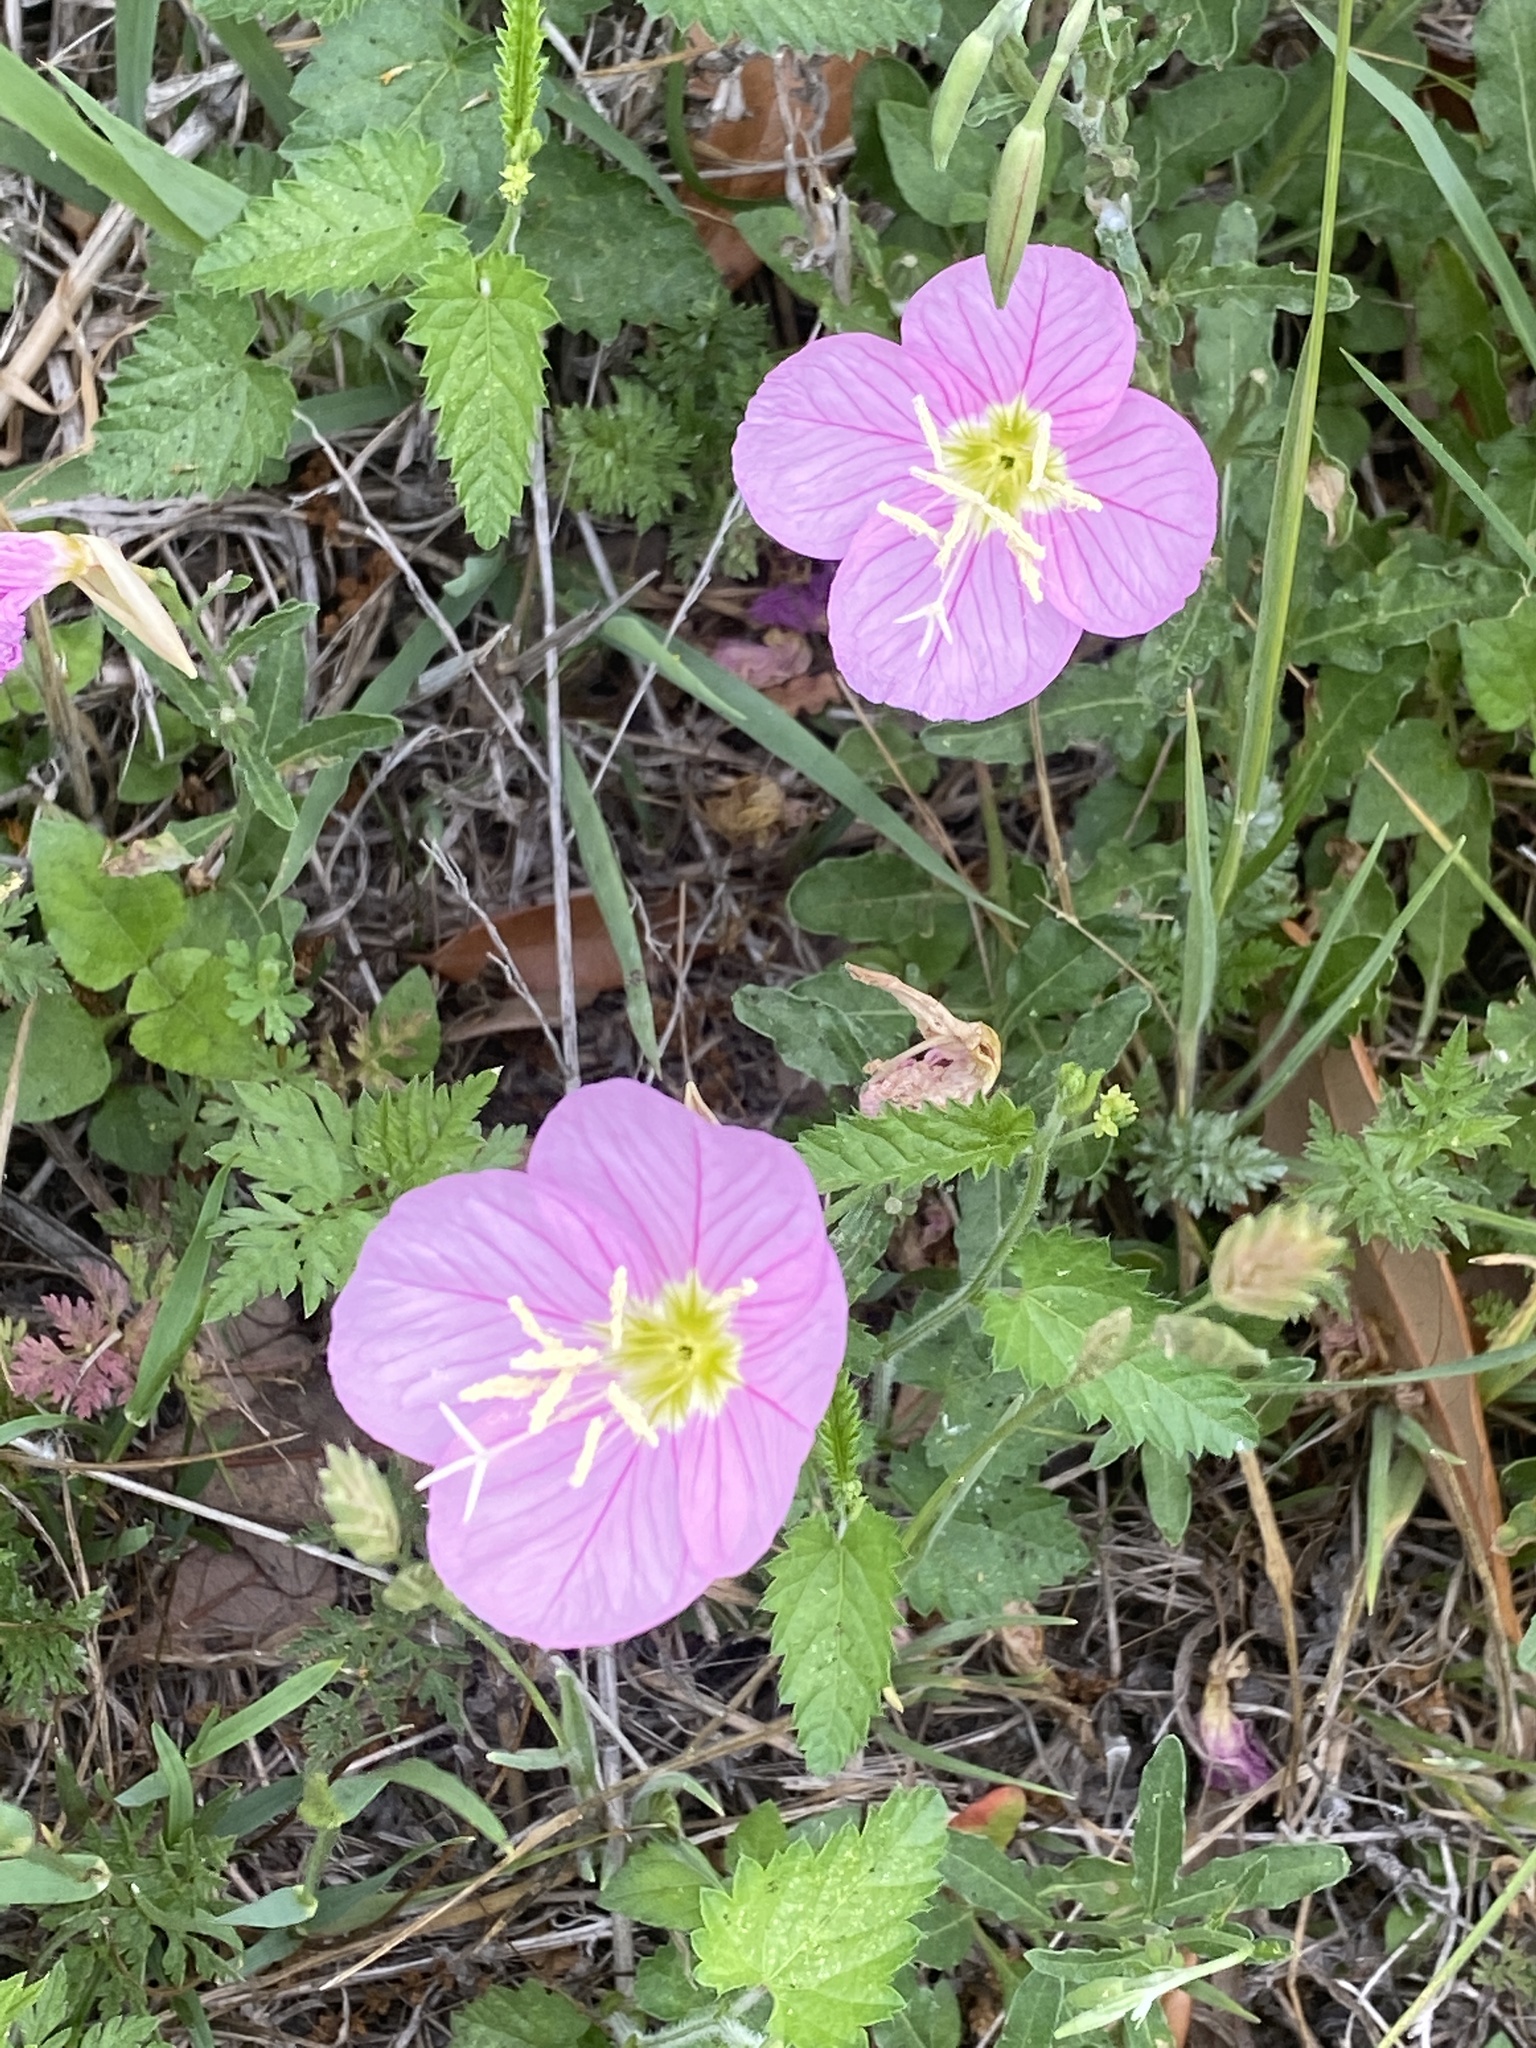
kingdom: Plantae
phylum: Tracheophyta
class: Magnoliopsida
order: Myrtales
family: Onagraceae
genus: Oenothera
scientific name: Oenothera speciosa
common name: White evening-primrose
